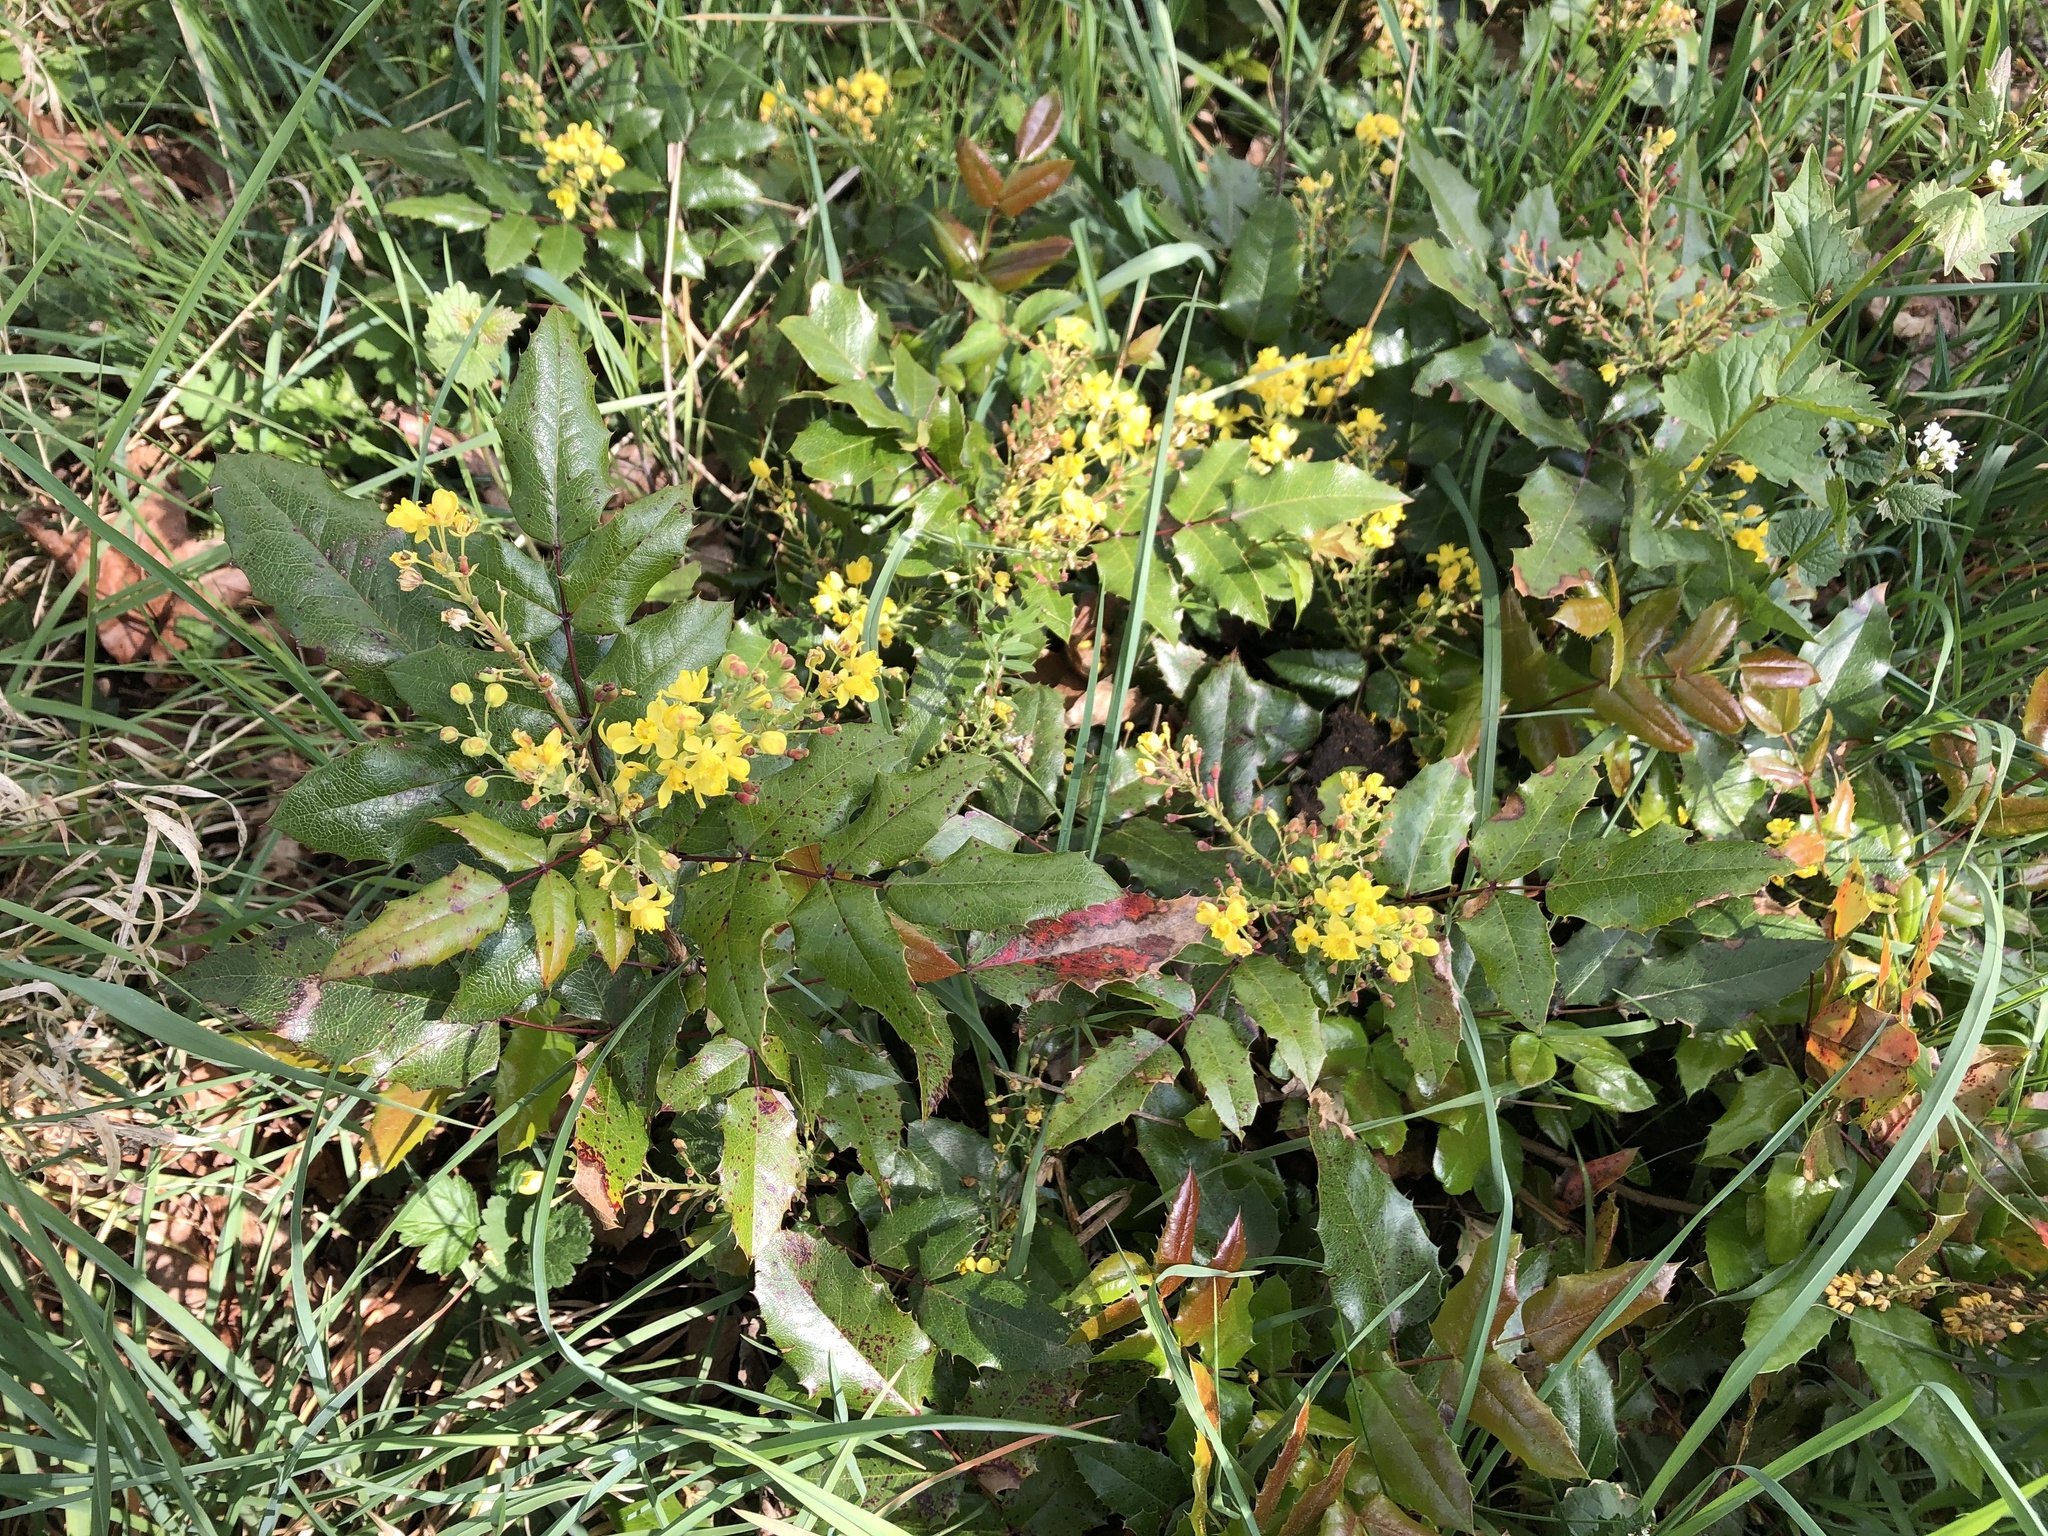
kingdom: Plantae
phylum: Tracheophyta
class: Magnoliopsida
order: Ranunculales
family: Berberidaceae
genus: Mahonia
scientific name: Mahonia aquifolium
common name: Oregon-grape
